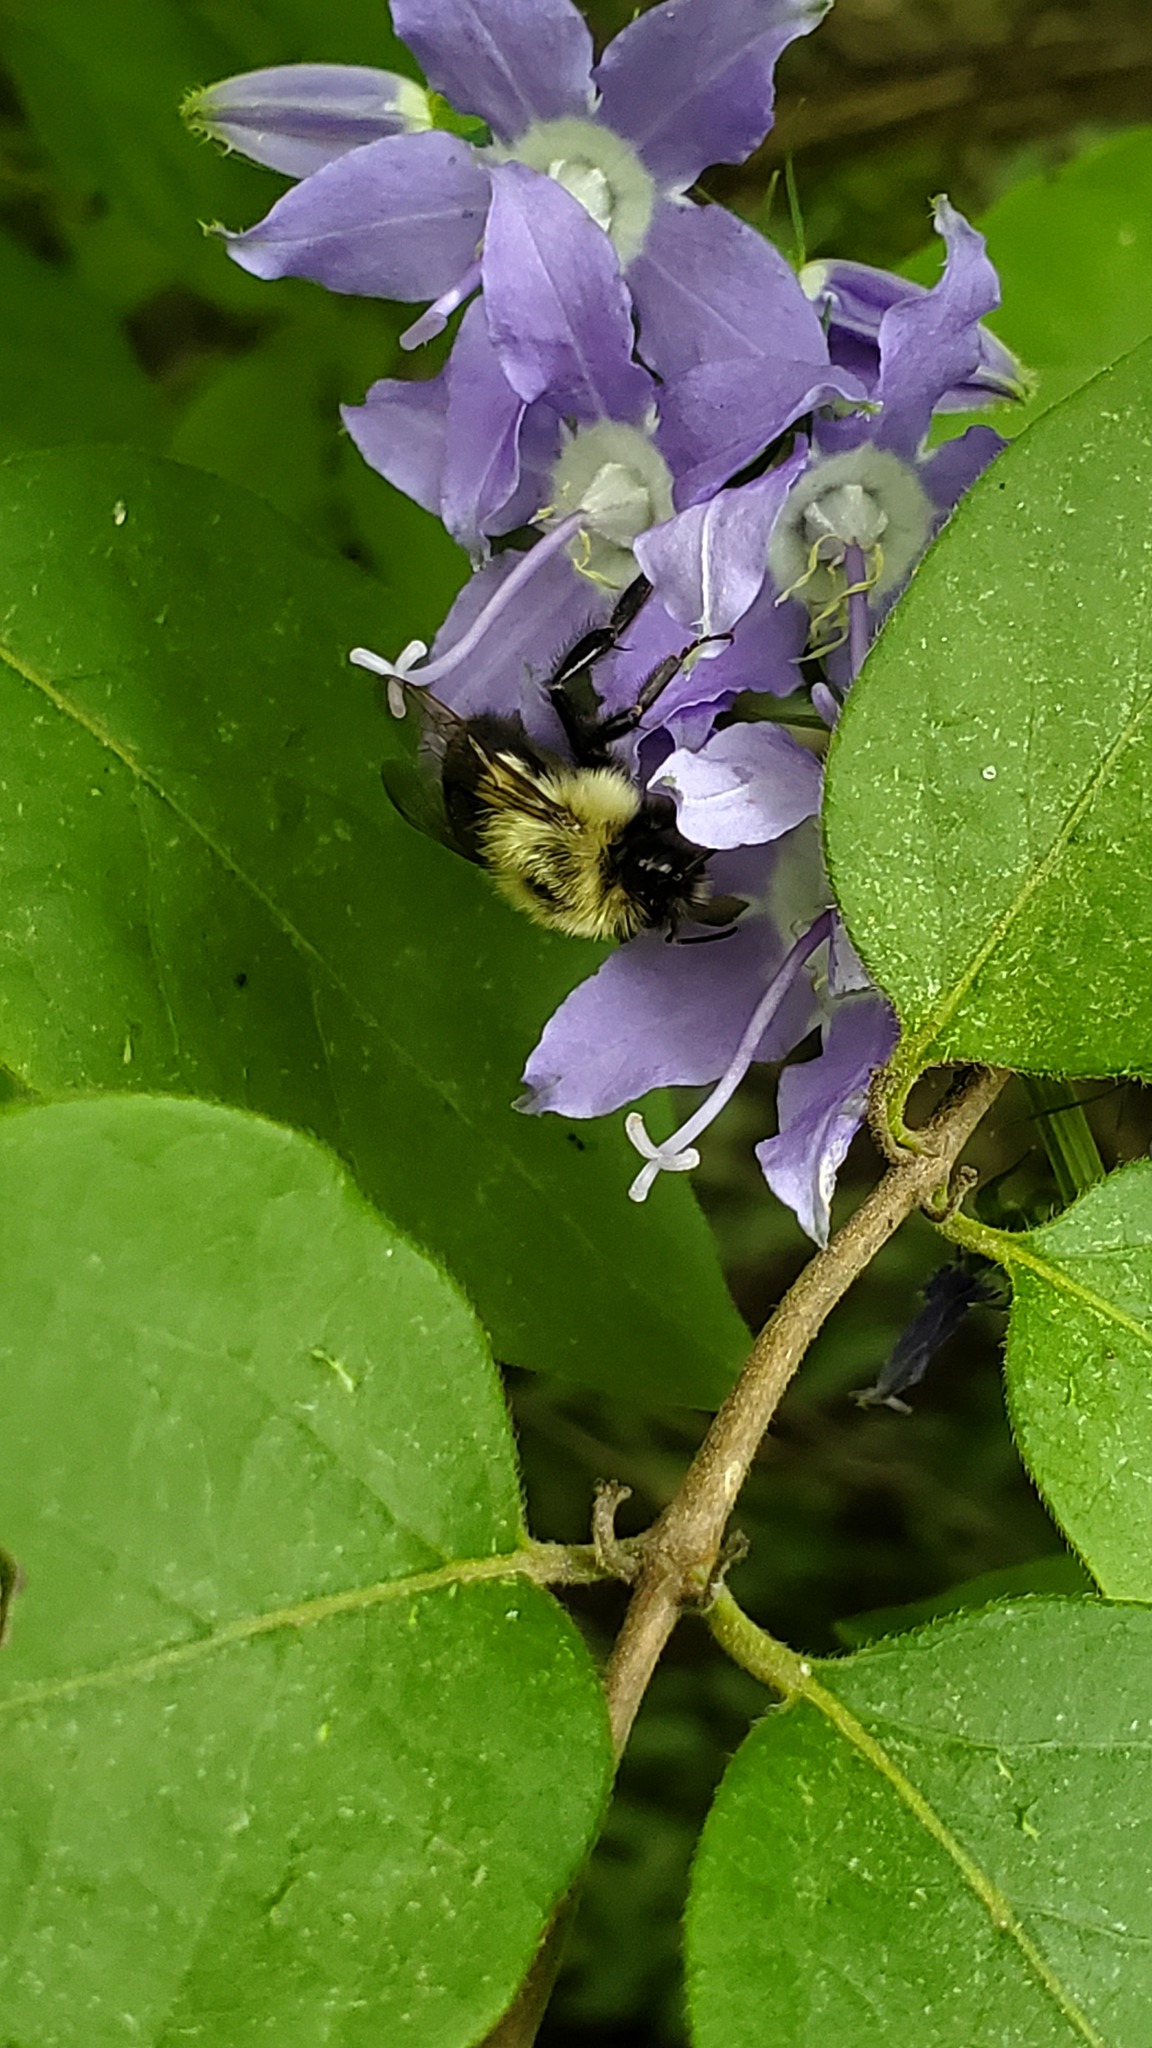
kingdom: Animalia
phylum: Arthropoda
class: Insecta
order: Hymenoptera
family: Apidae
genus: Bombus
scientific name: Bombus impatiens
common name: Common eastern bumble bee
